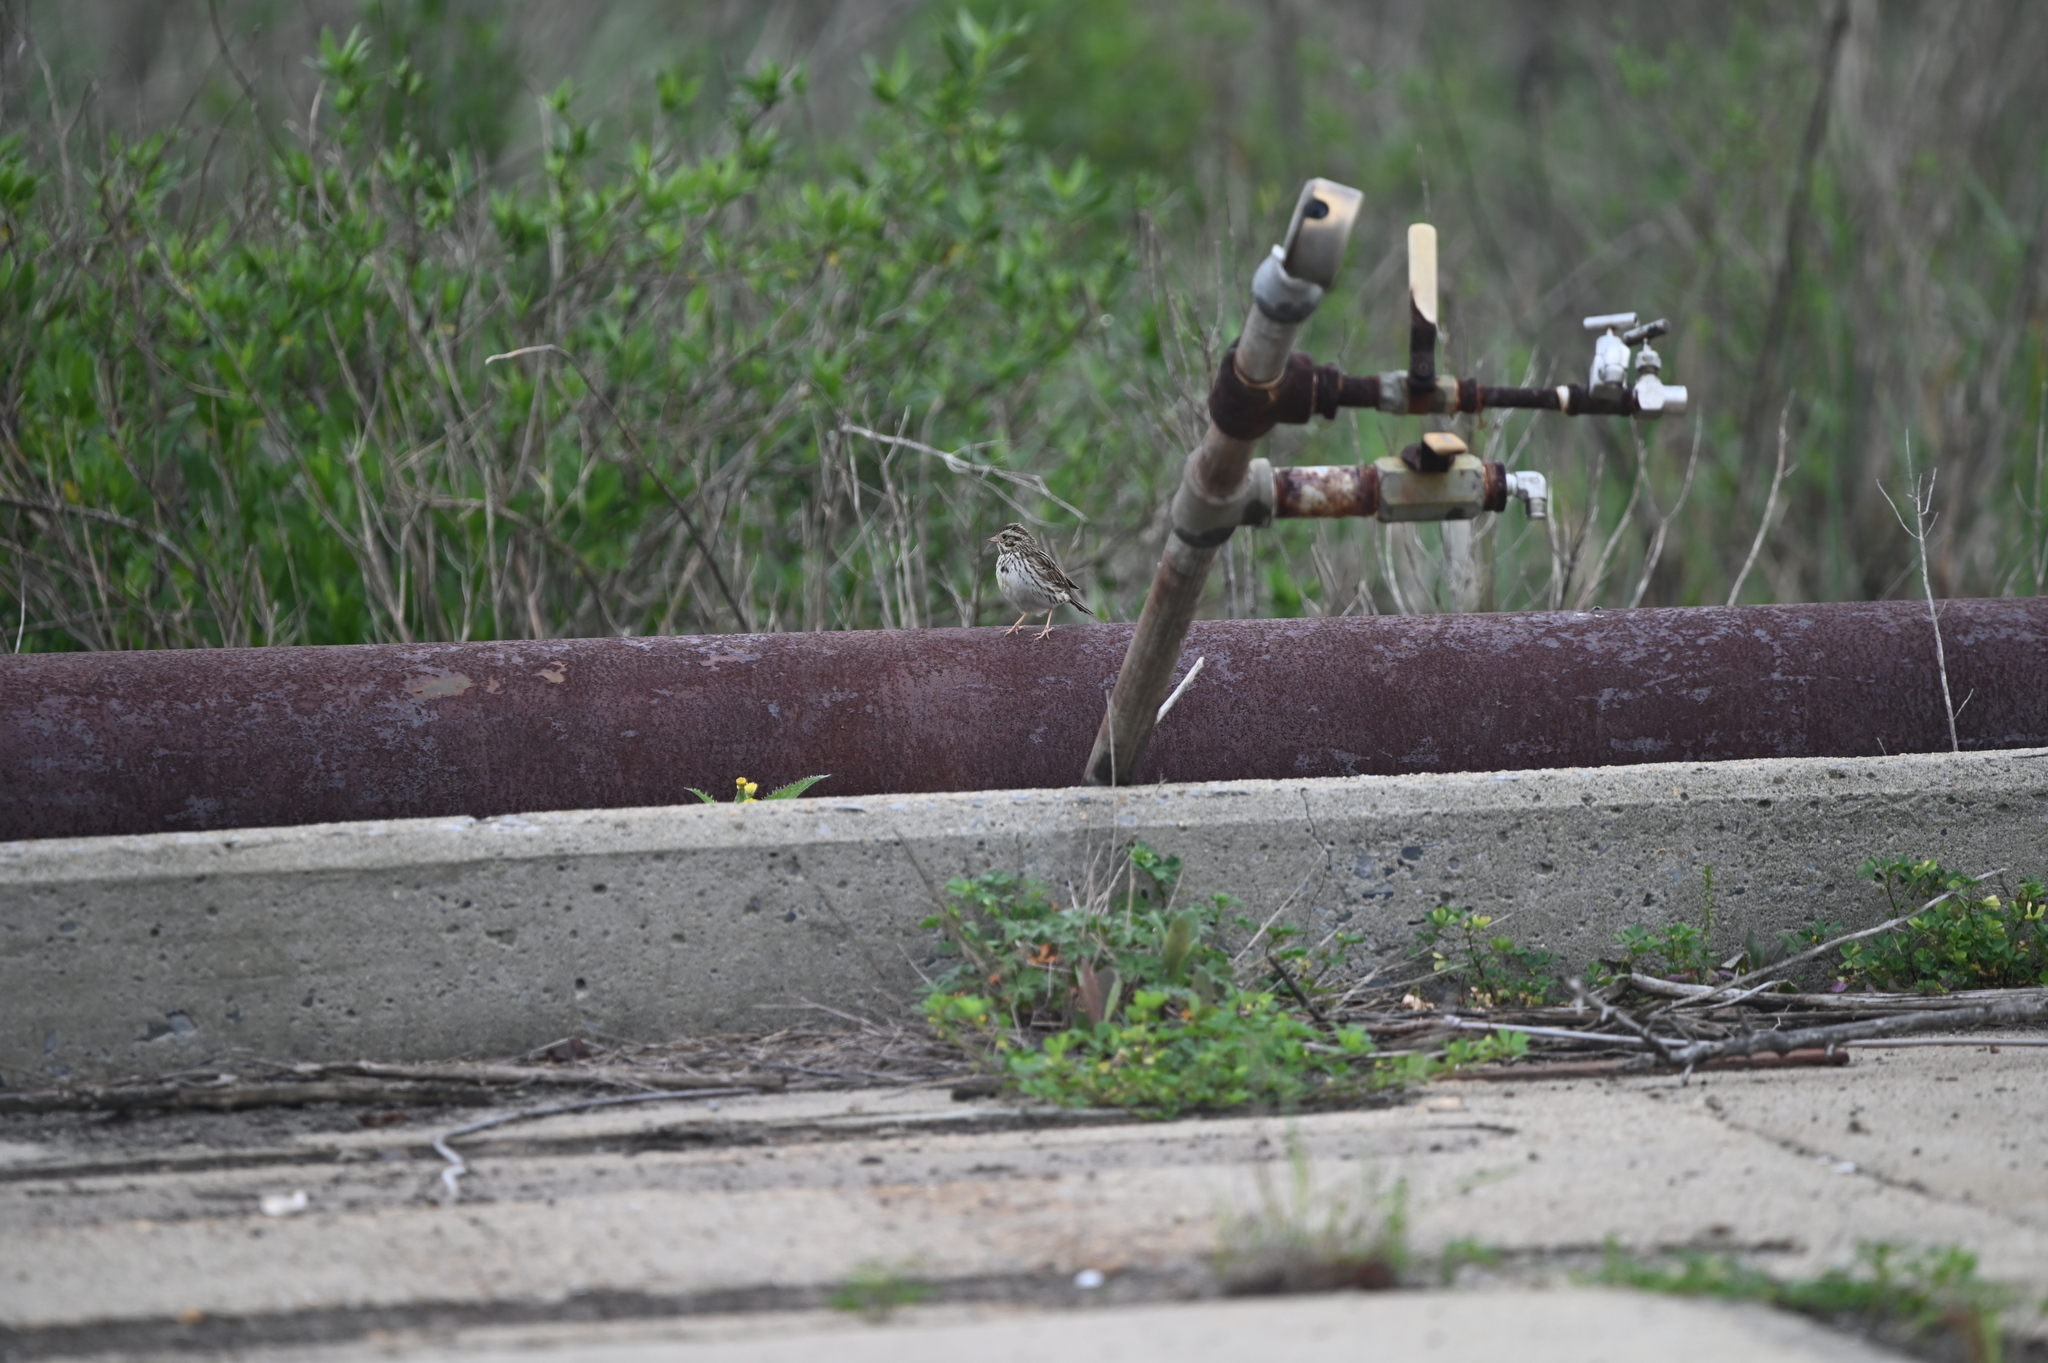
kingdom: Animalia
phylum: Chordata
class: Aves
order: Passeriformes
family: Passerellidae
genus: Passerculus
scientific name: Passerculus sandwichensis
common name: Savannah sparrow
